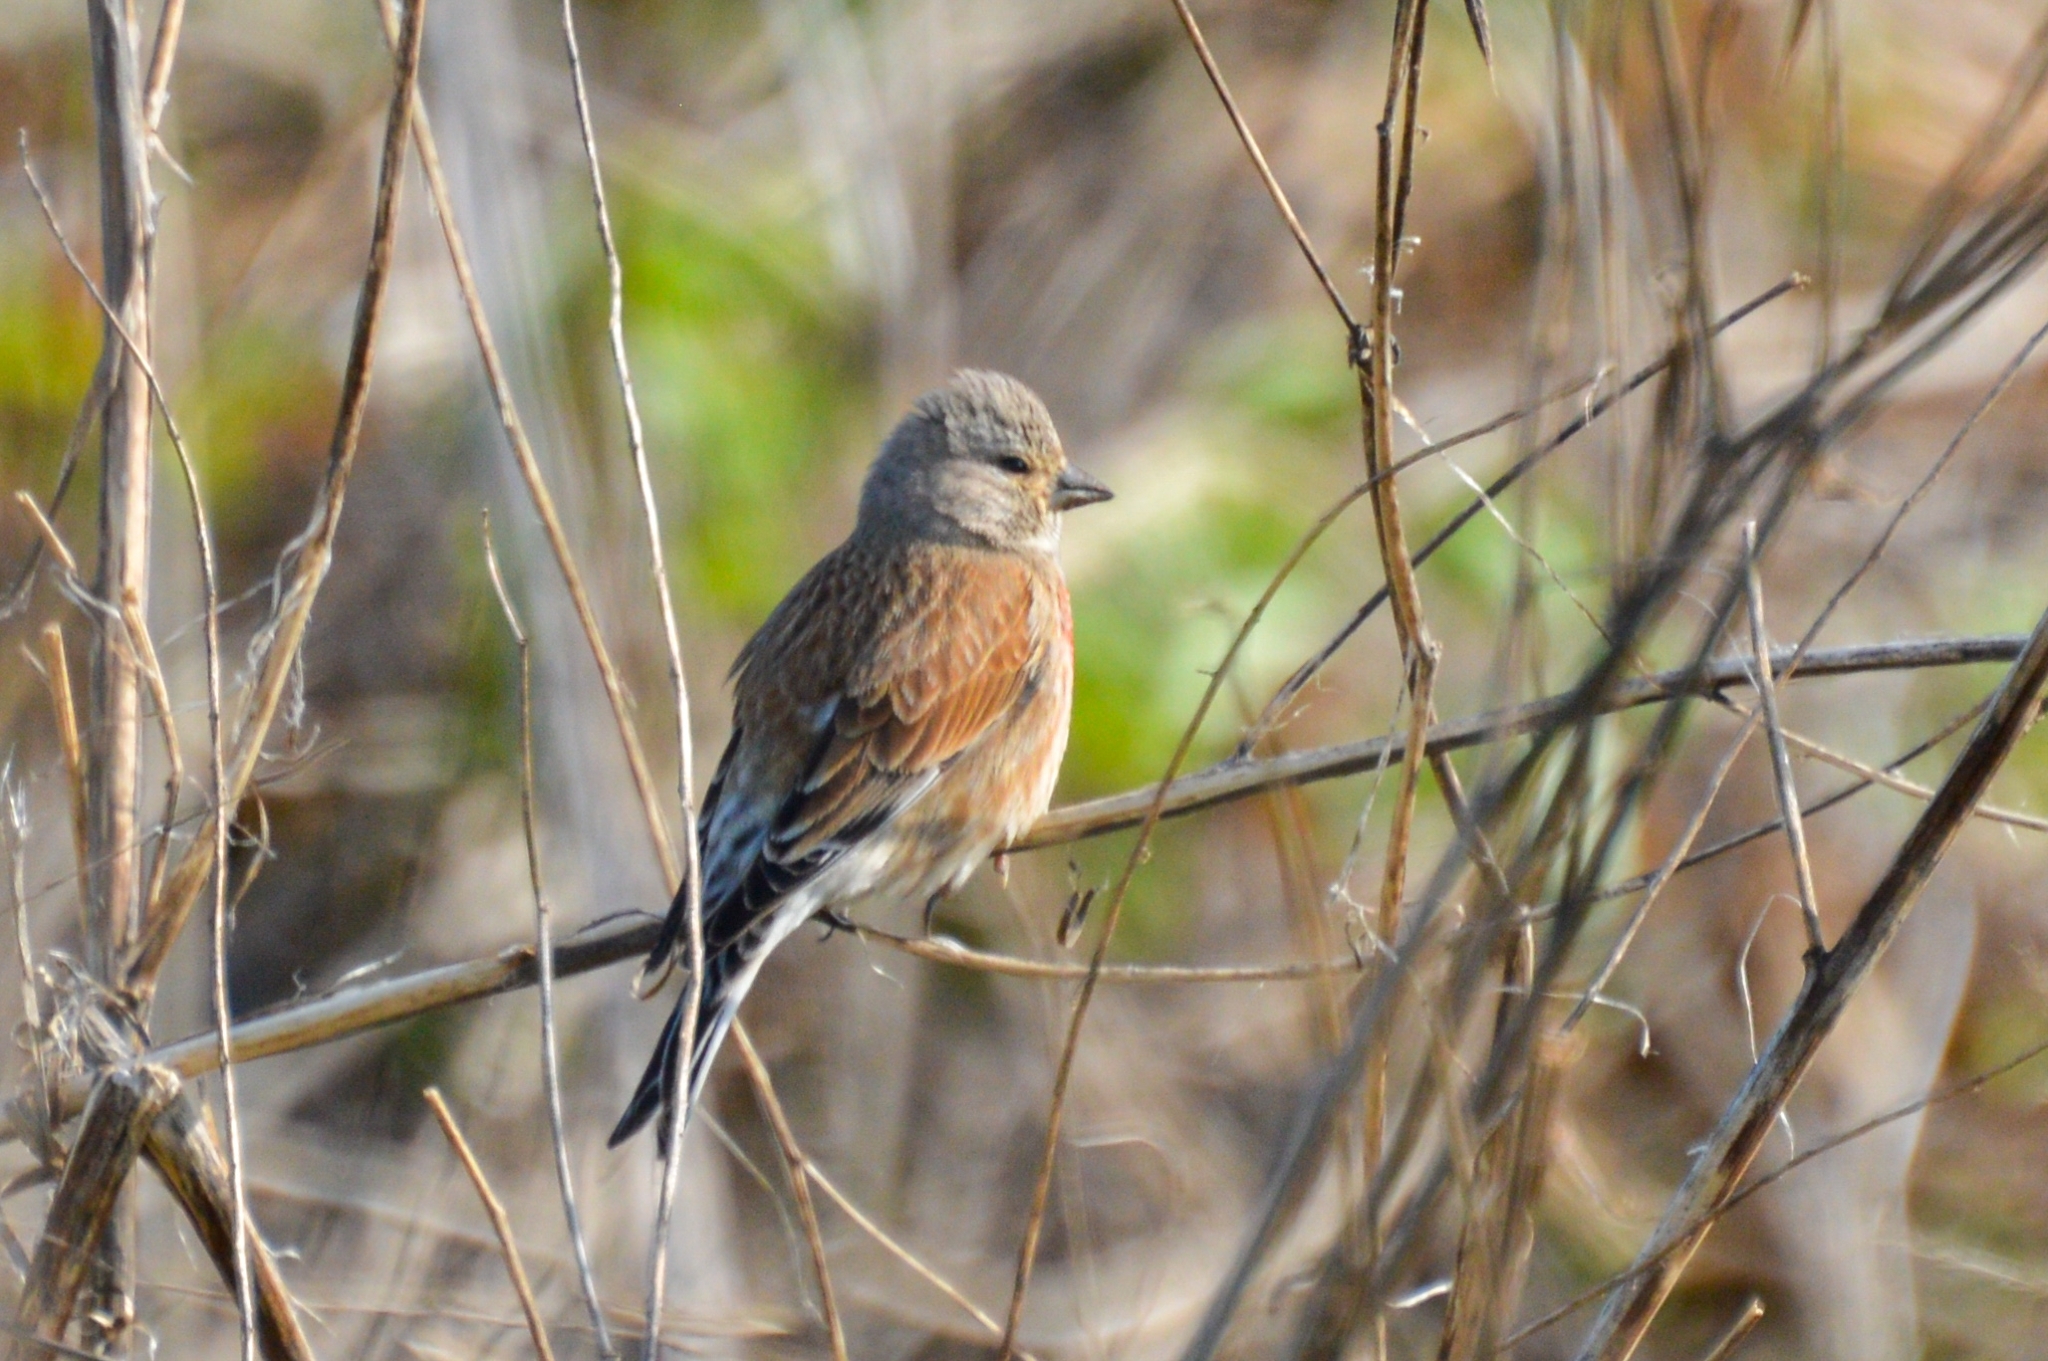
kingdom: Animalia
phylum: Chordata
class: Aves
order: Passeriformes
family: Fringillidae
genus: Linaria
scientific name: Linaria cannabina
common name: Common linnet
